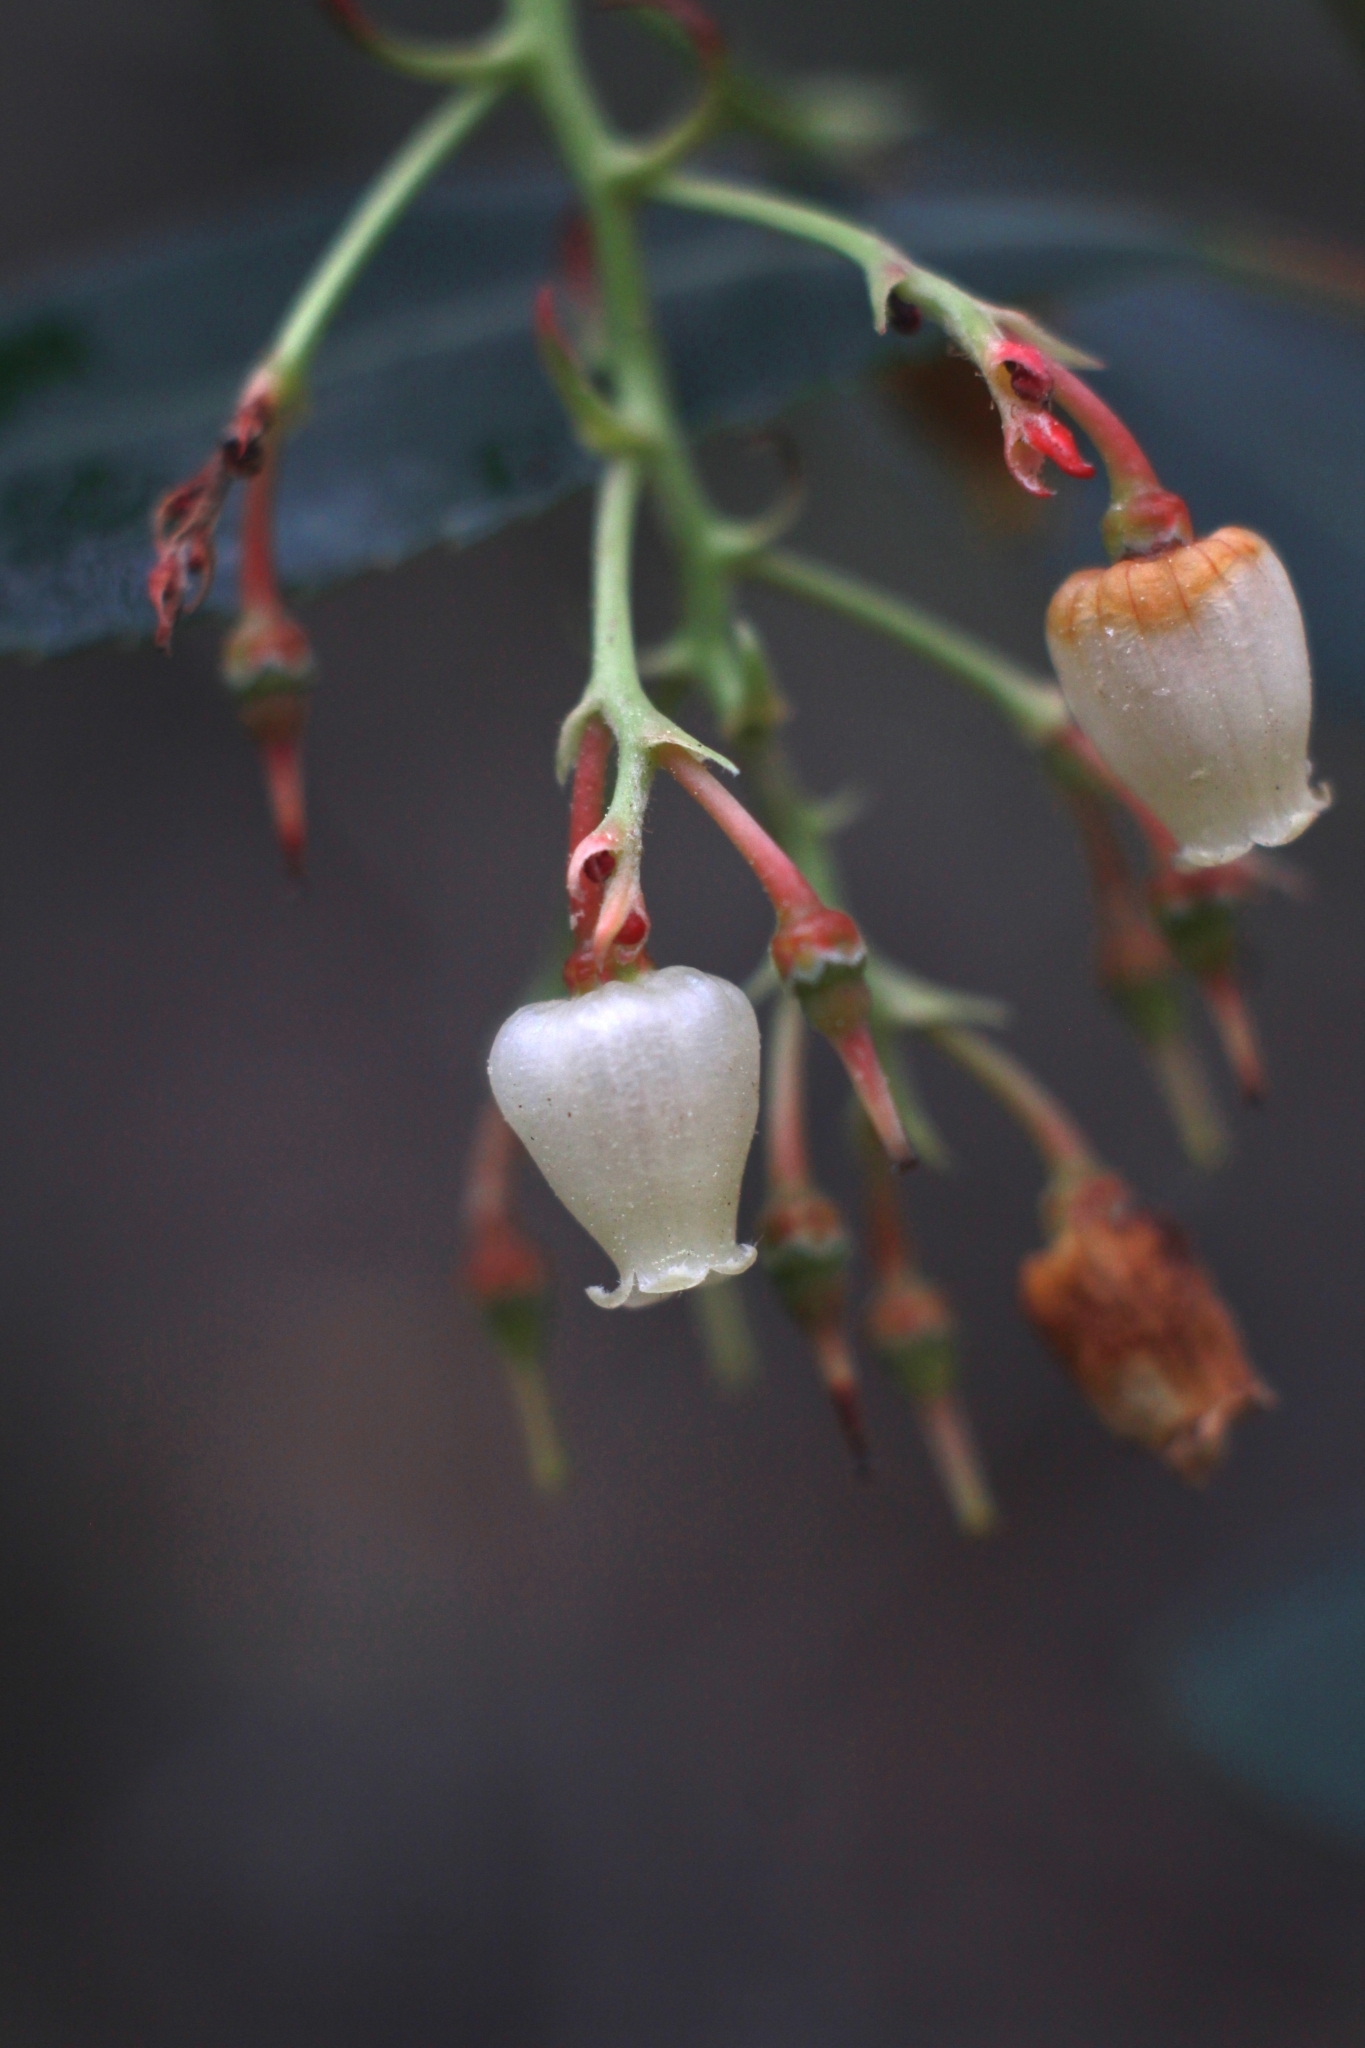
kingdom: Plantae
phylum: Tracheophyta
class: Magnoliopsida
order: Ericales
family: Ericaceae
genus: Arbutus
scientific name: Arbutus unedo
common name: Strawberry-tree
